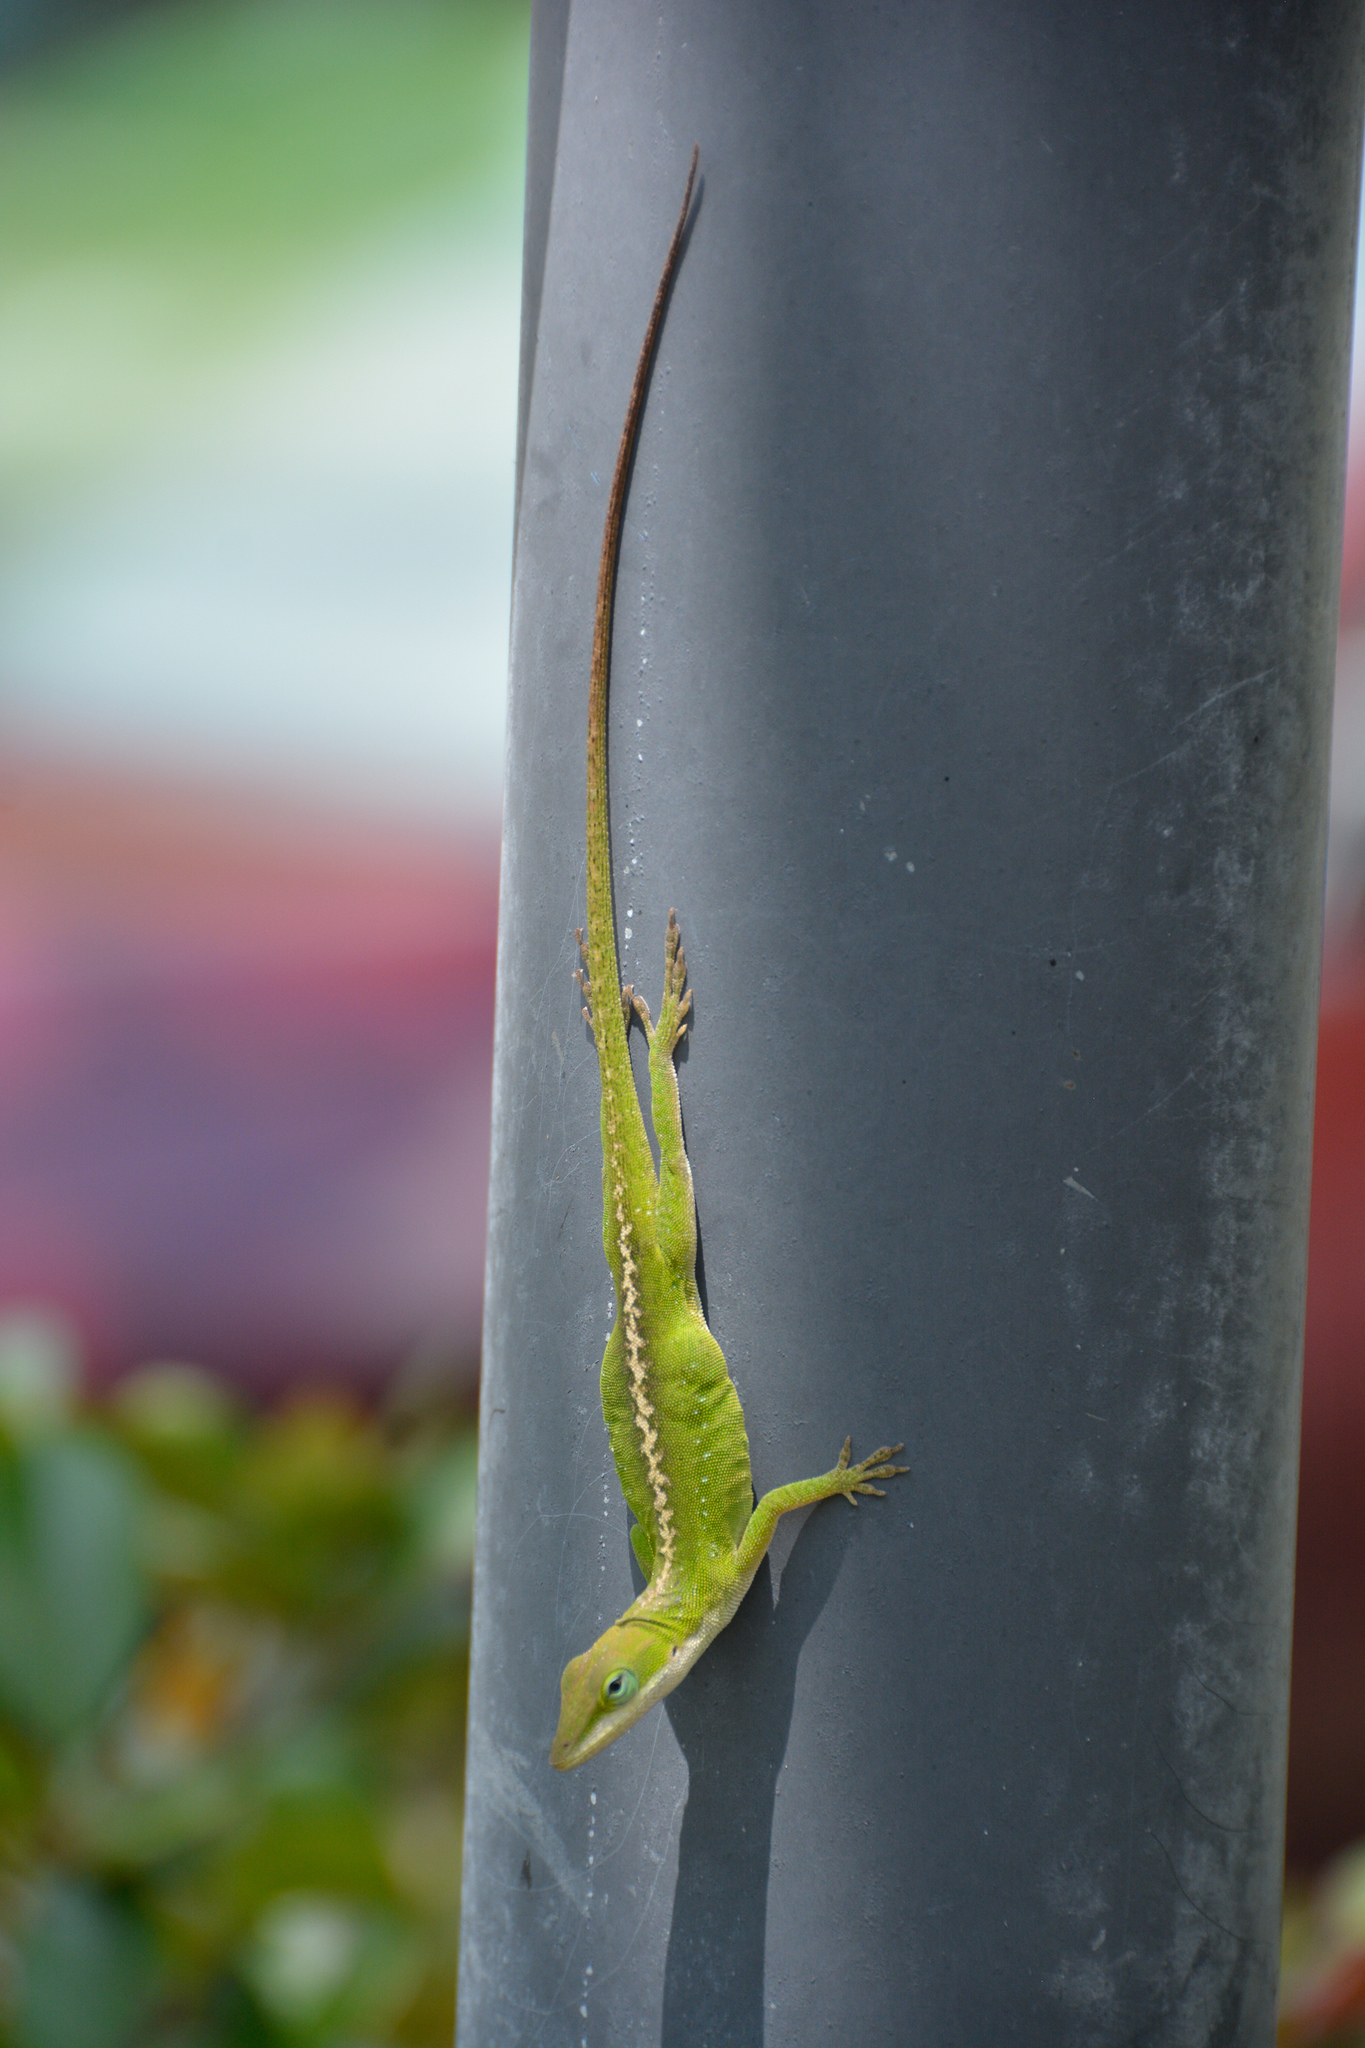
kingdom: Animalia
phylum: Chordata
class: Squamata
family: Dactyloidae
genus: Anolis
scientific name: Anolis carolinensis
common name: Green anole
